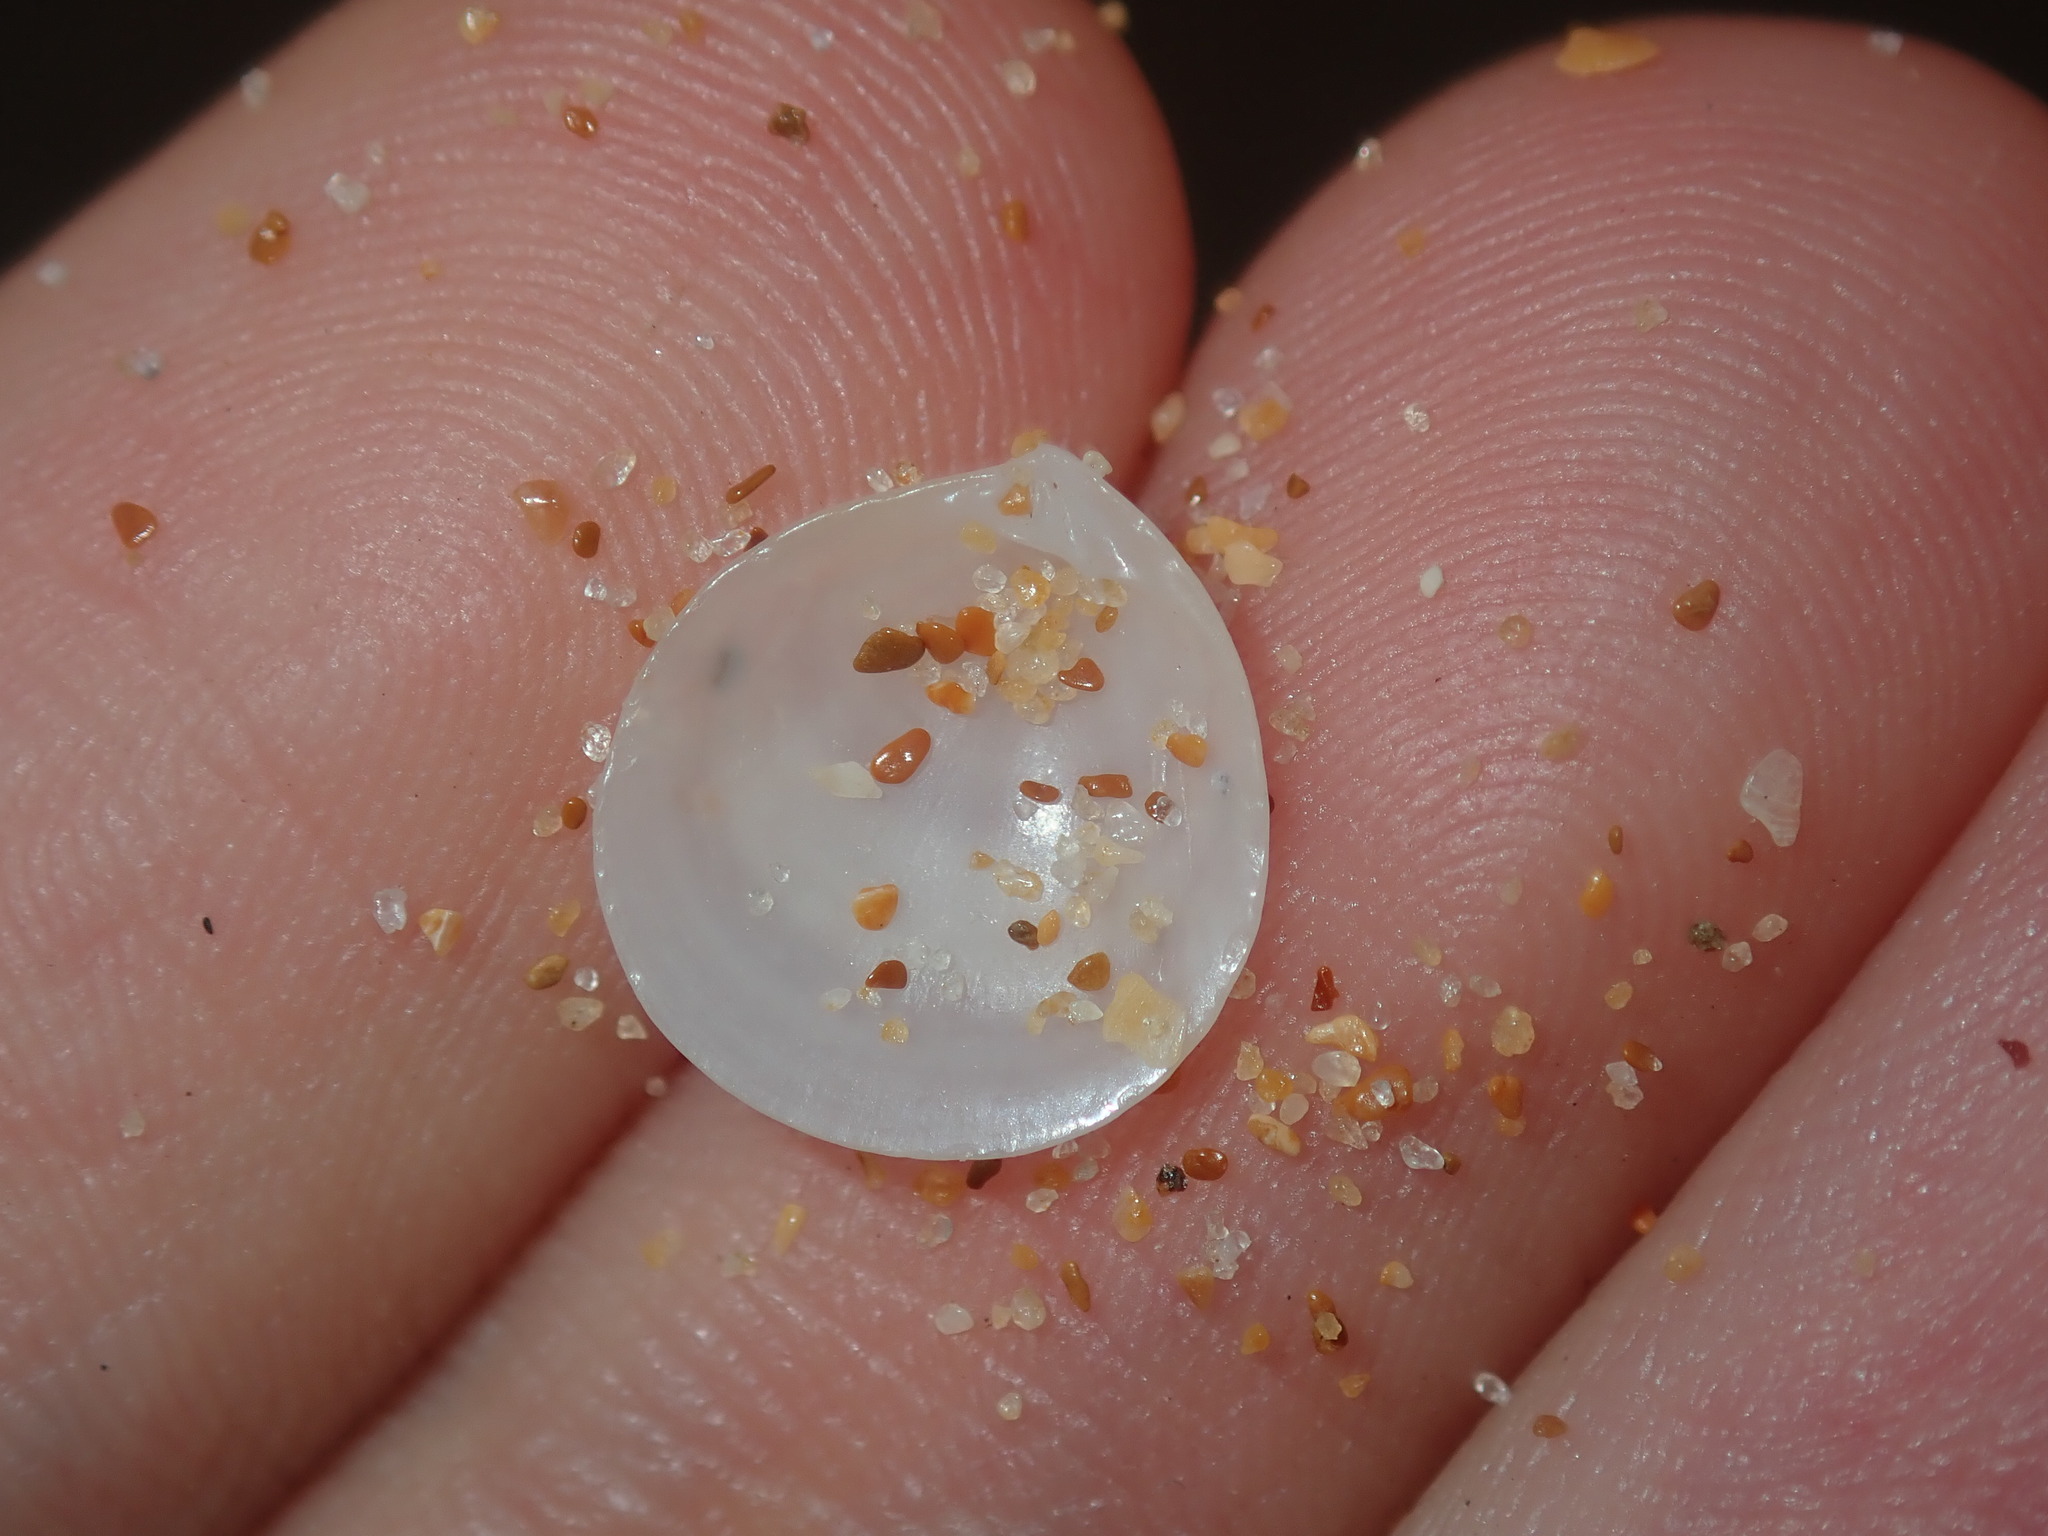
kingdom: Animalia
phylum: Mollusca
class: Bivalvia
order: Venerida
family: Ungulinidae
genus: Microstagon
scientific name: Microstagon jacksonensis
